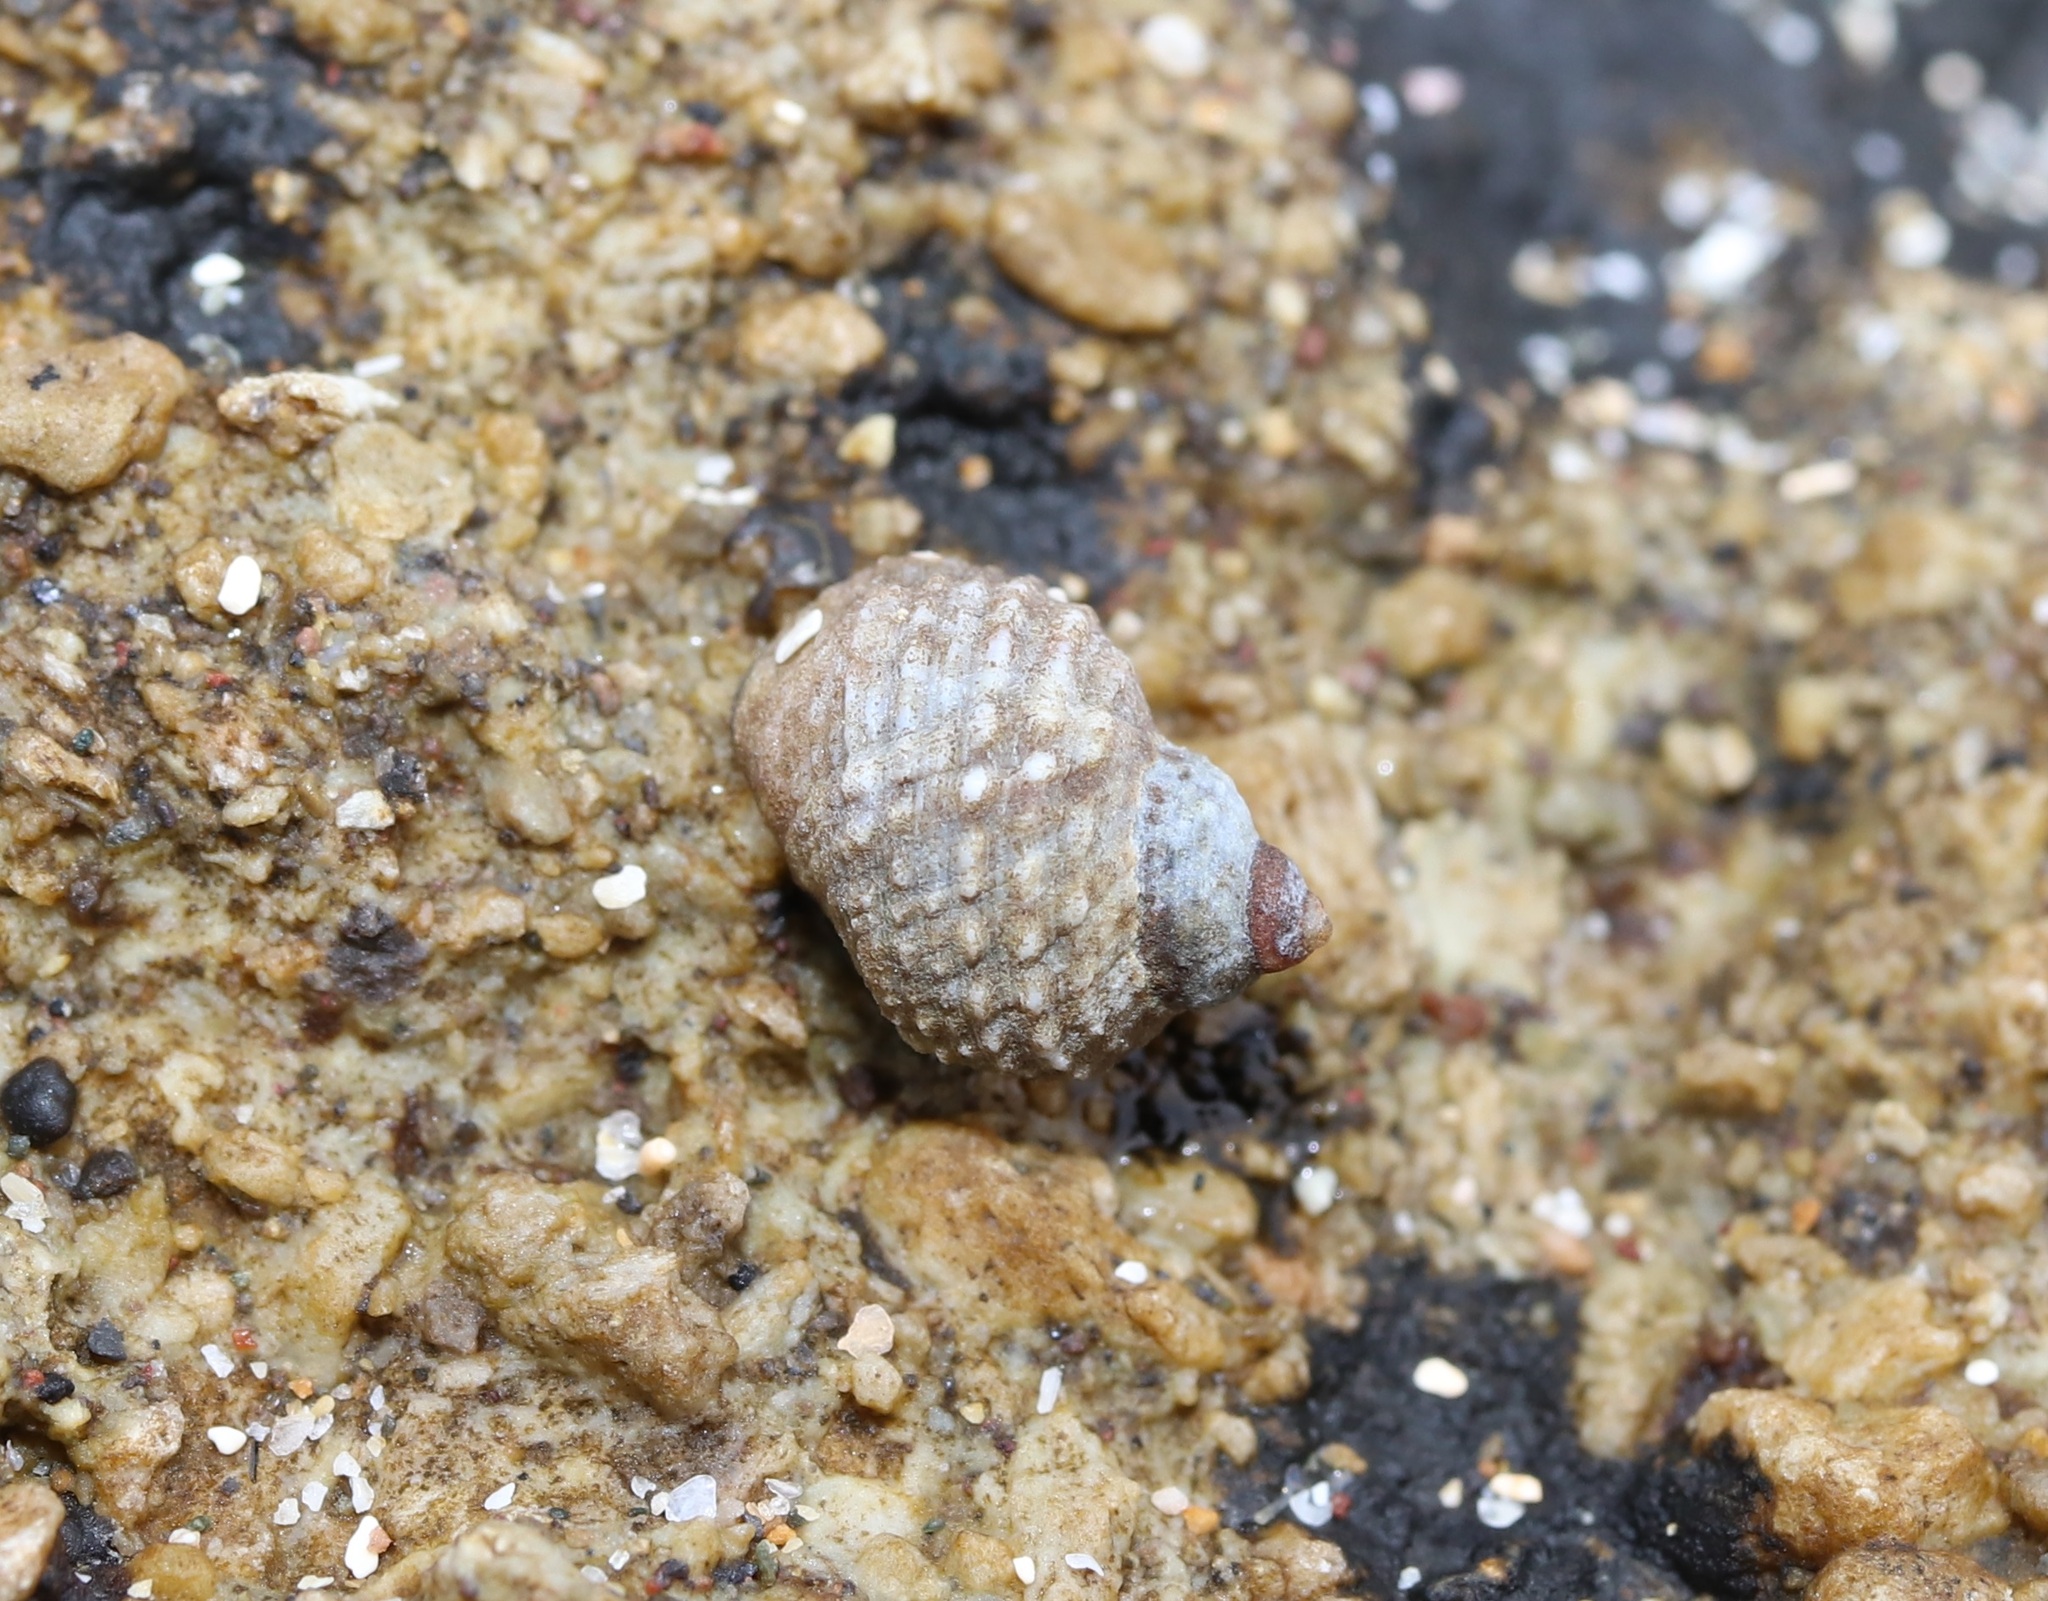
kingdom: Animalia
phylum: Mollusca
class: Gastropoda
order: Littorinimorpha
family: Littorinidae
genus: Echinolittorina
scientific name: Echinolittorina radiata
